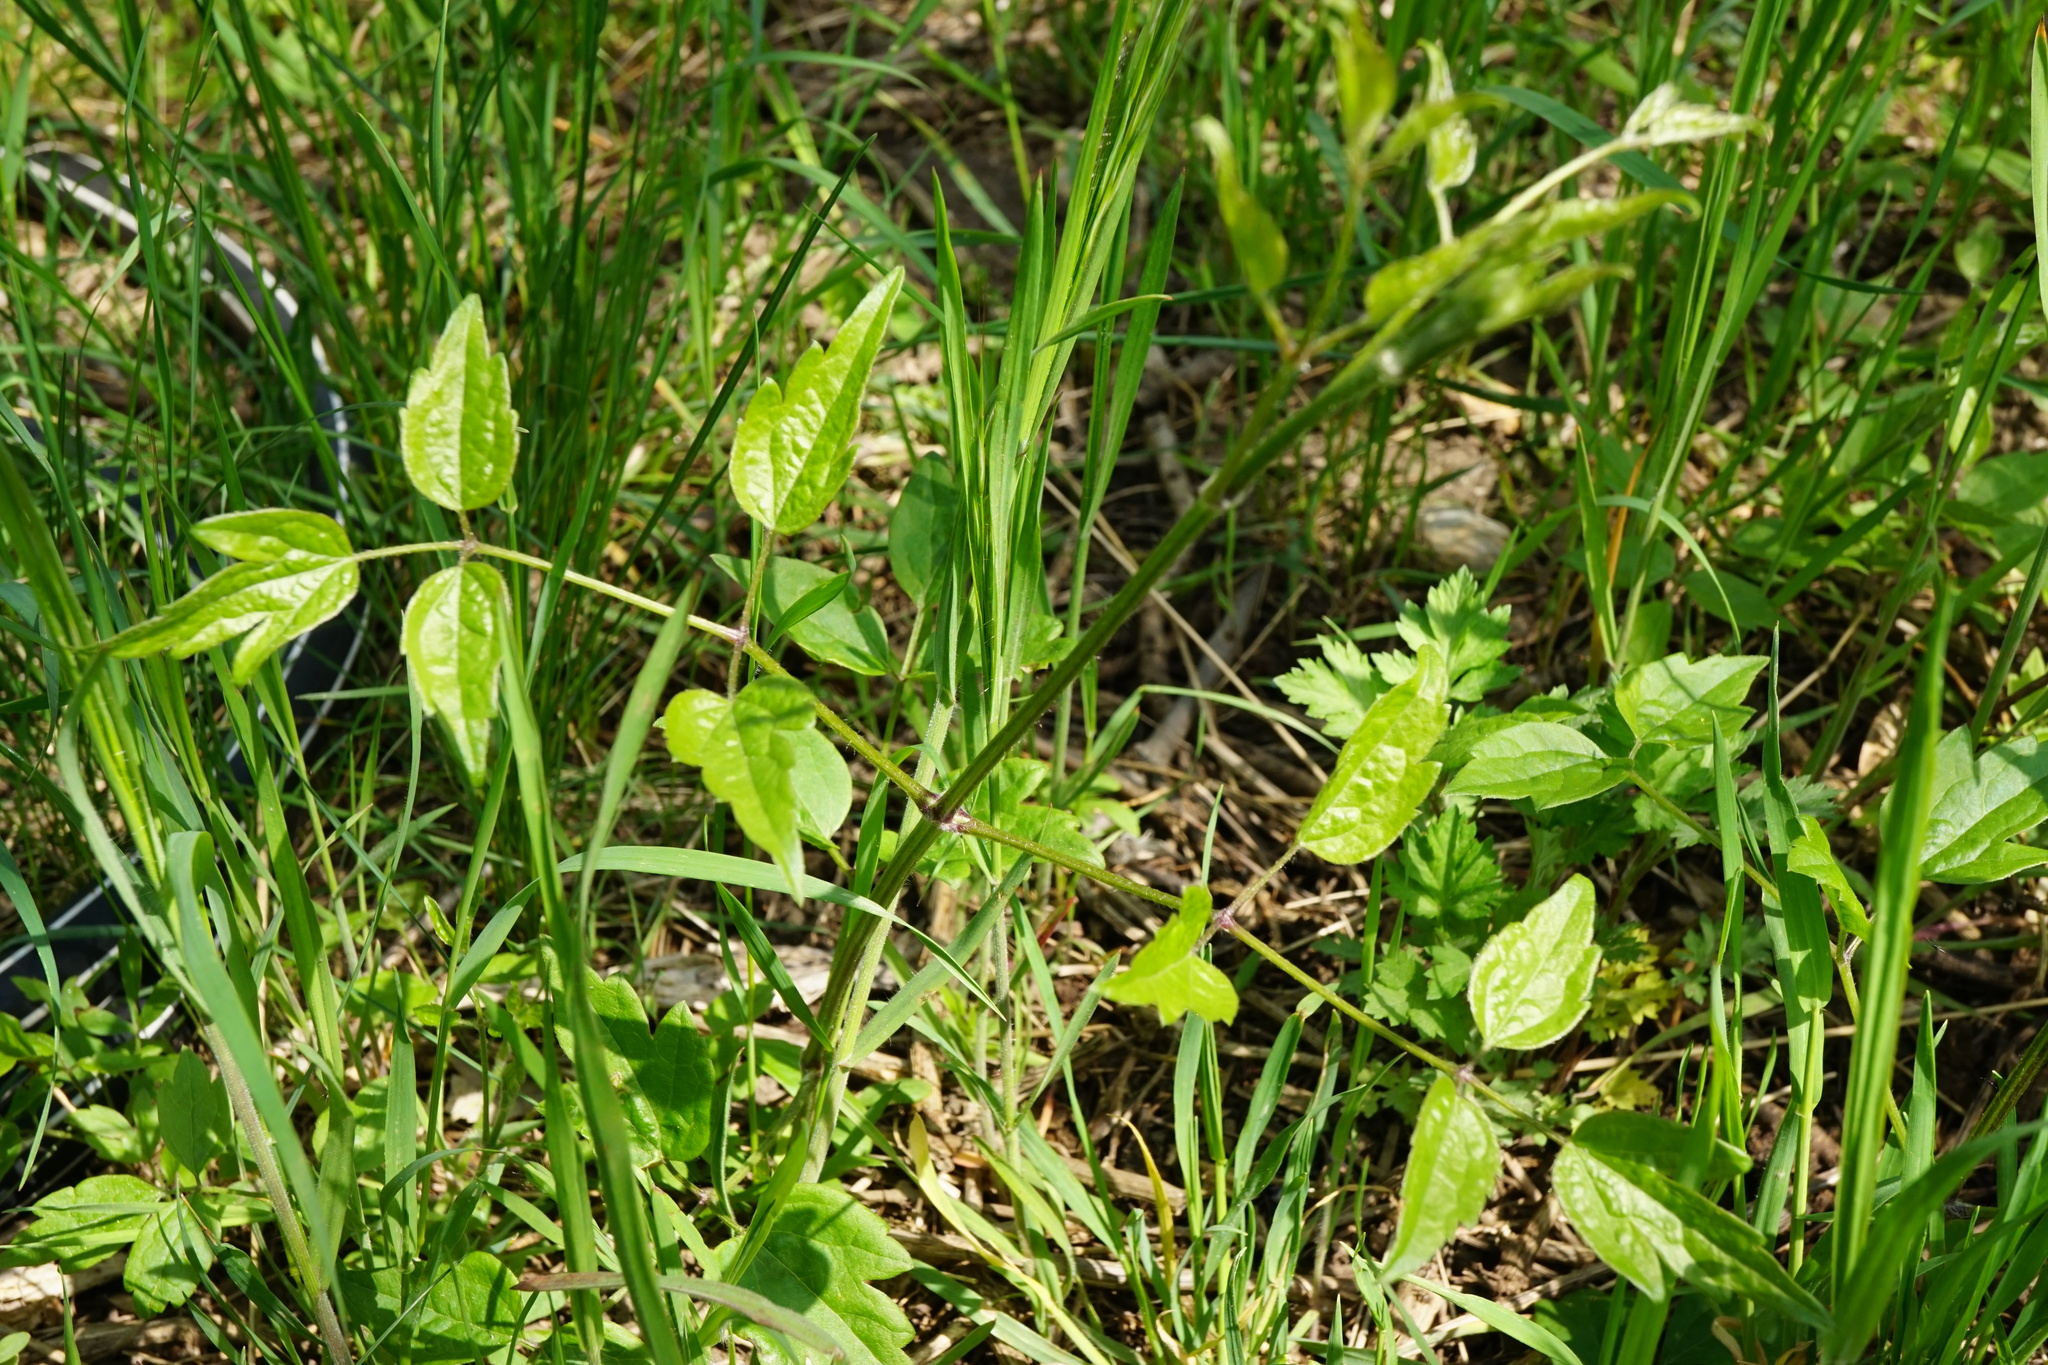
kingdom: Plantae
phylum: Tracheophyta
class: Magnoliopsida
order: Ranunculales
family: Ranunculaceae
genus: Clematis
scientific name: Clematis vitalba
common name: Evergreen clematis
